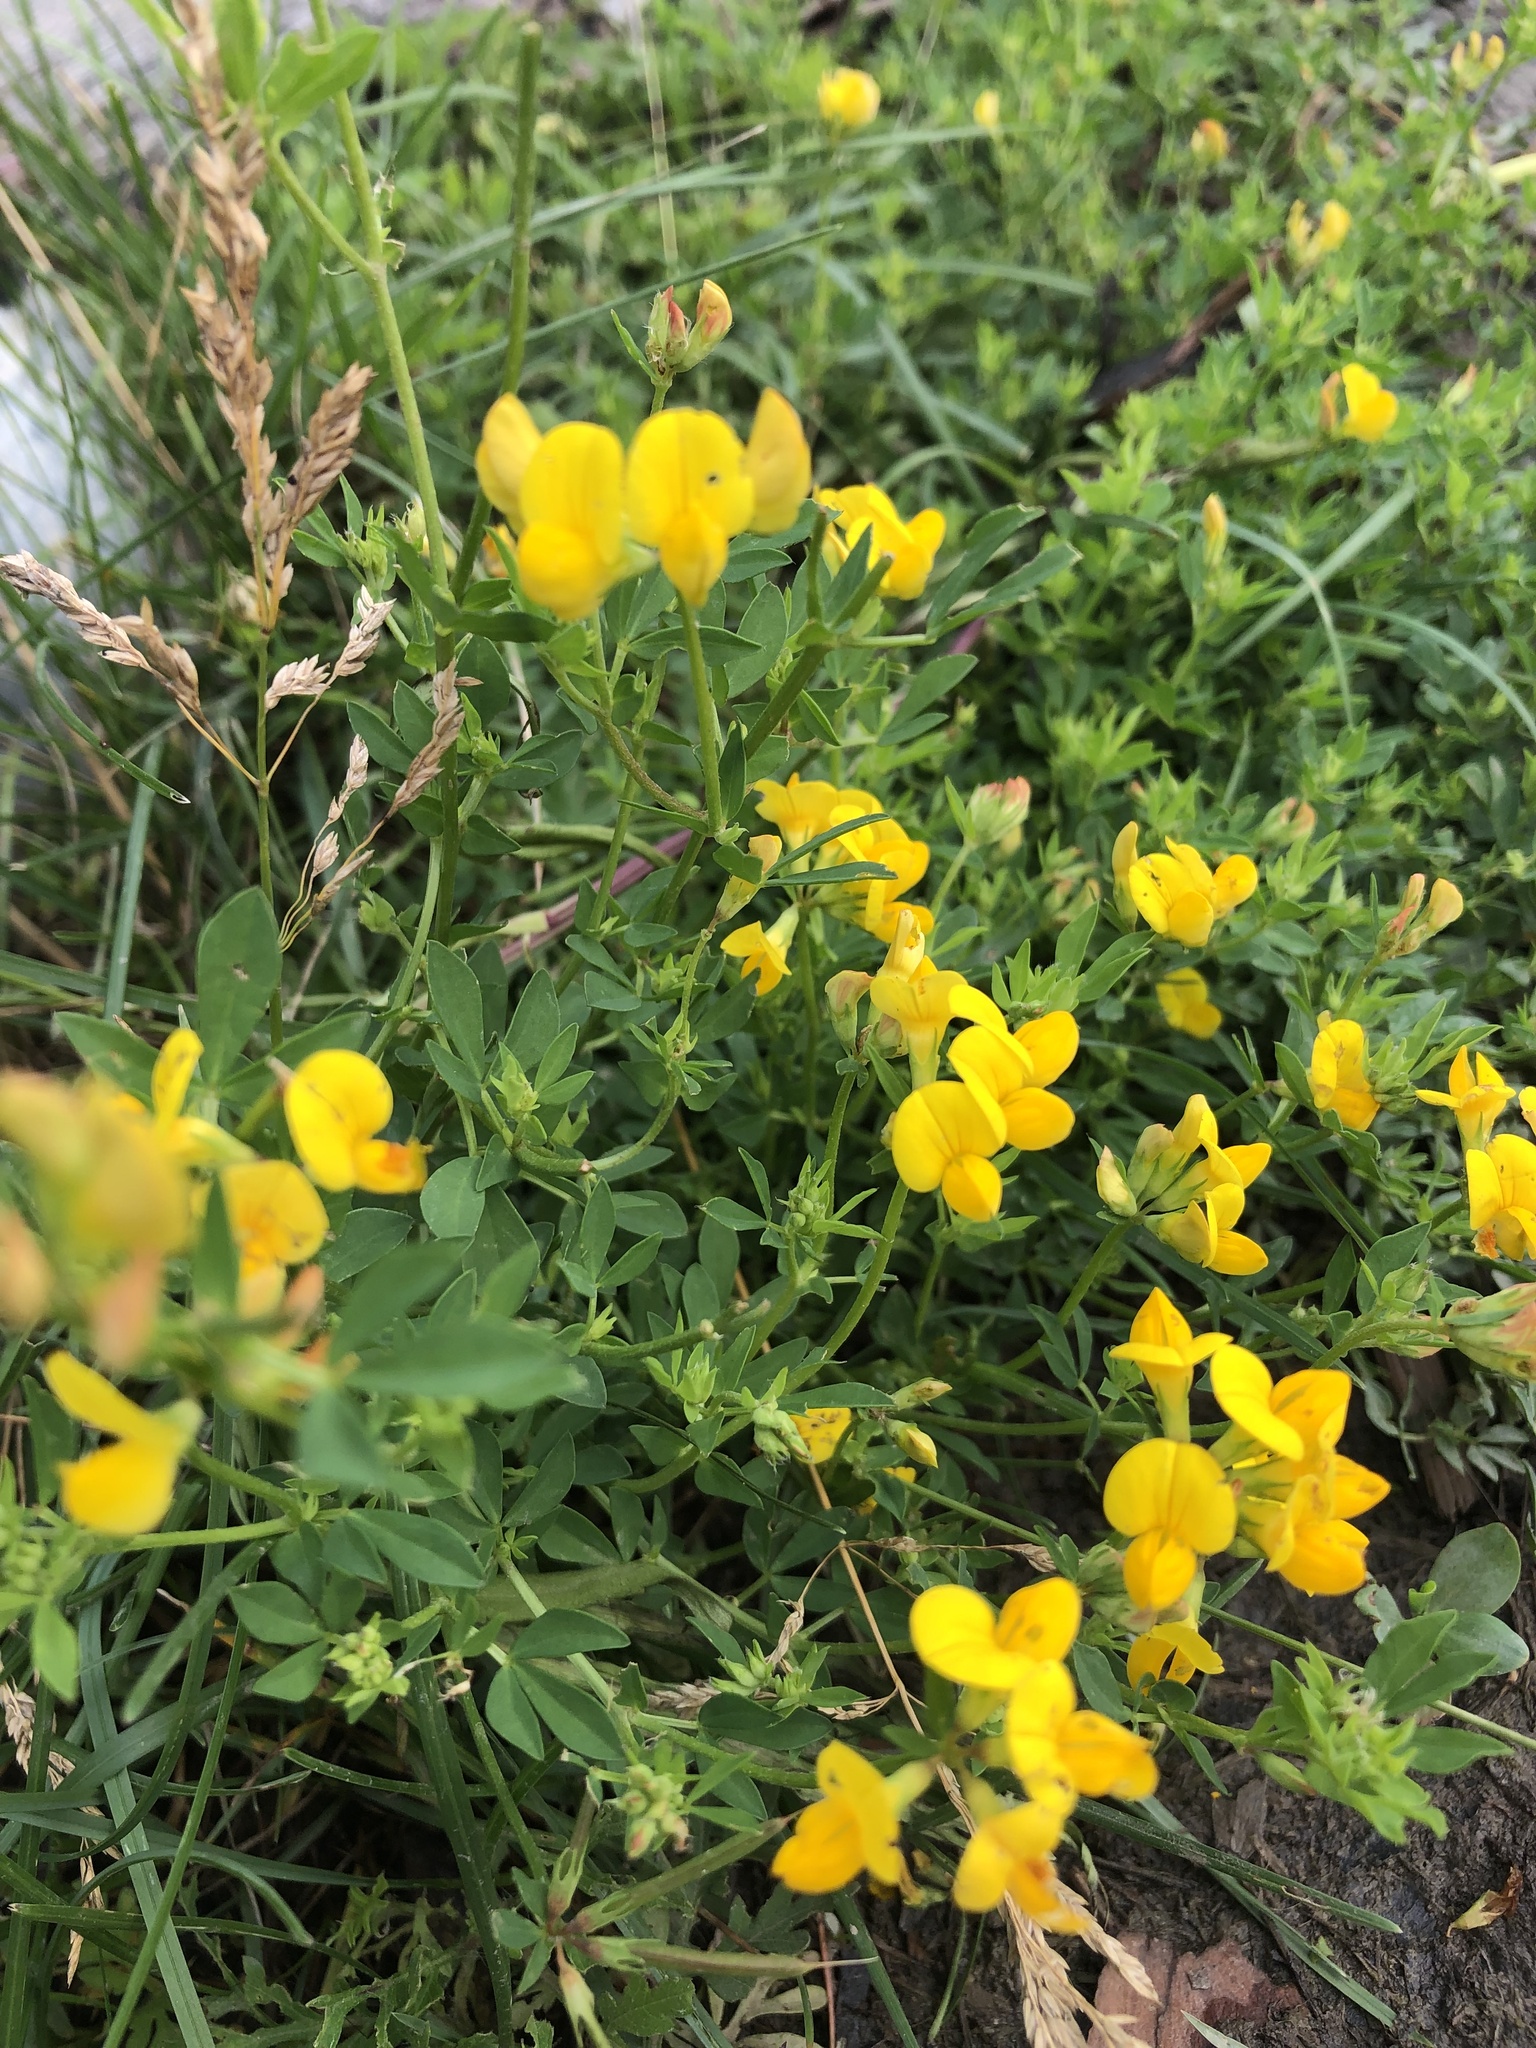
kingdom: Plantae
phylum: Tracheophyta
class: Magnoliopsida
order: Fabales
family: Fabaceae
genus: Lotus
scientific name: Lotus corniculatus
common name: Common bird's-foot-trefoil
